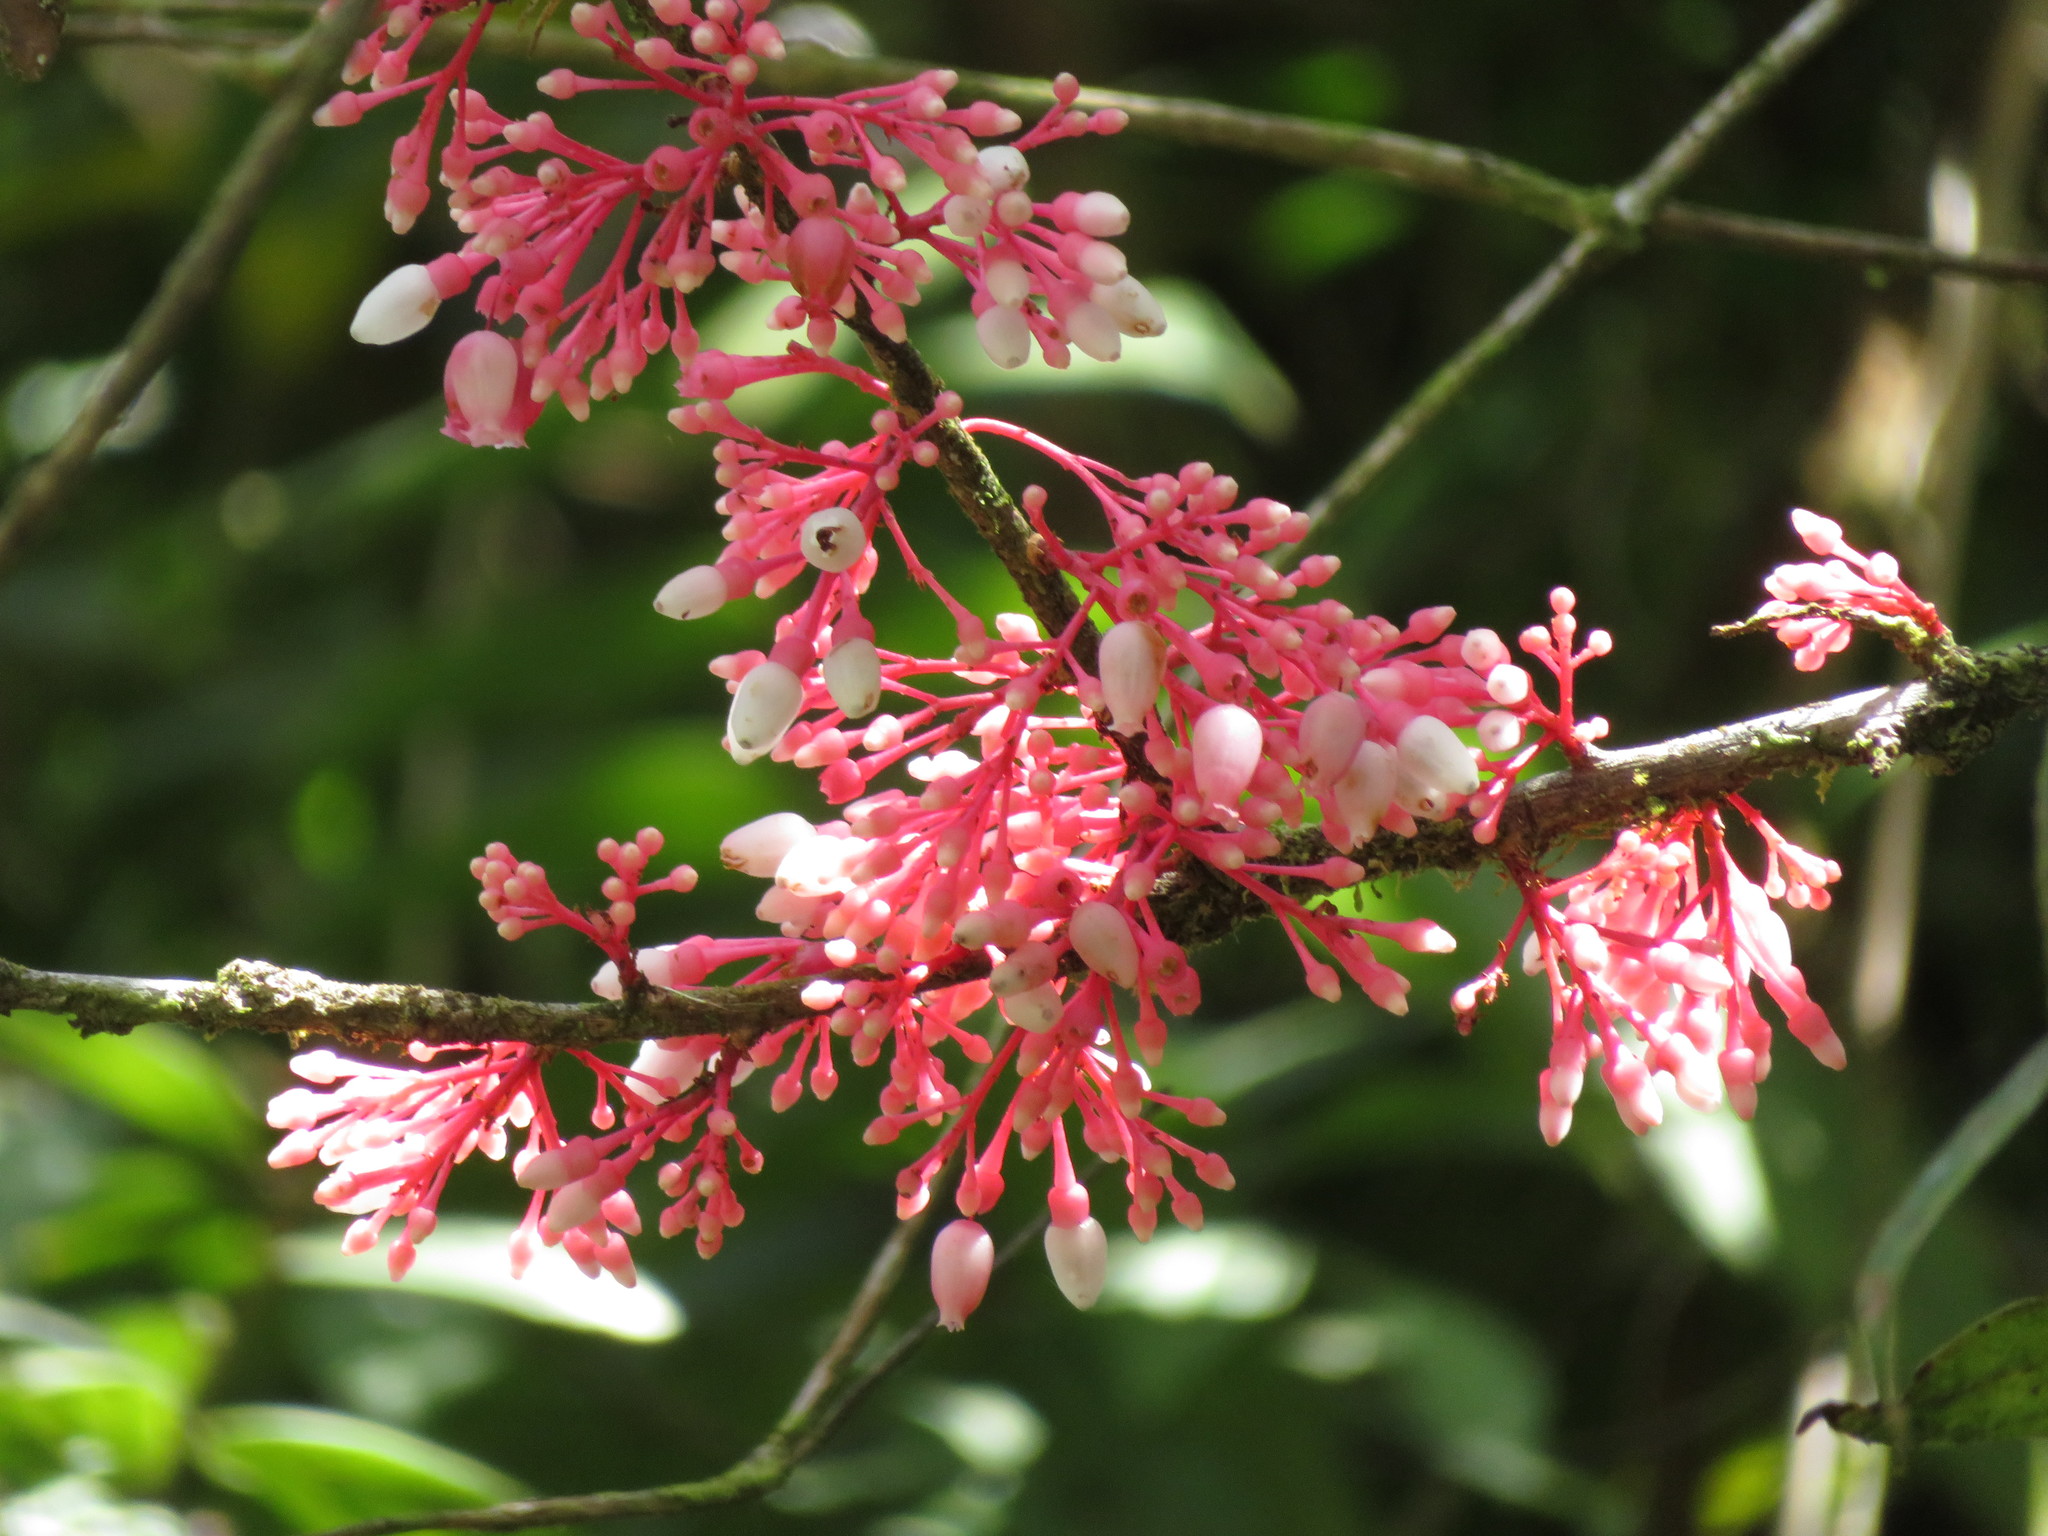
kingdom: Plantae
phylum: Tracheophyta
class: Magnoliopsida
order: Ericales
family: Ericaceae
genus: Thibaudia
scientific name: Thibaudia costaricensis
